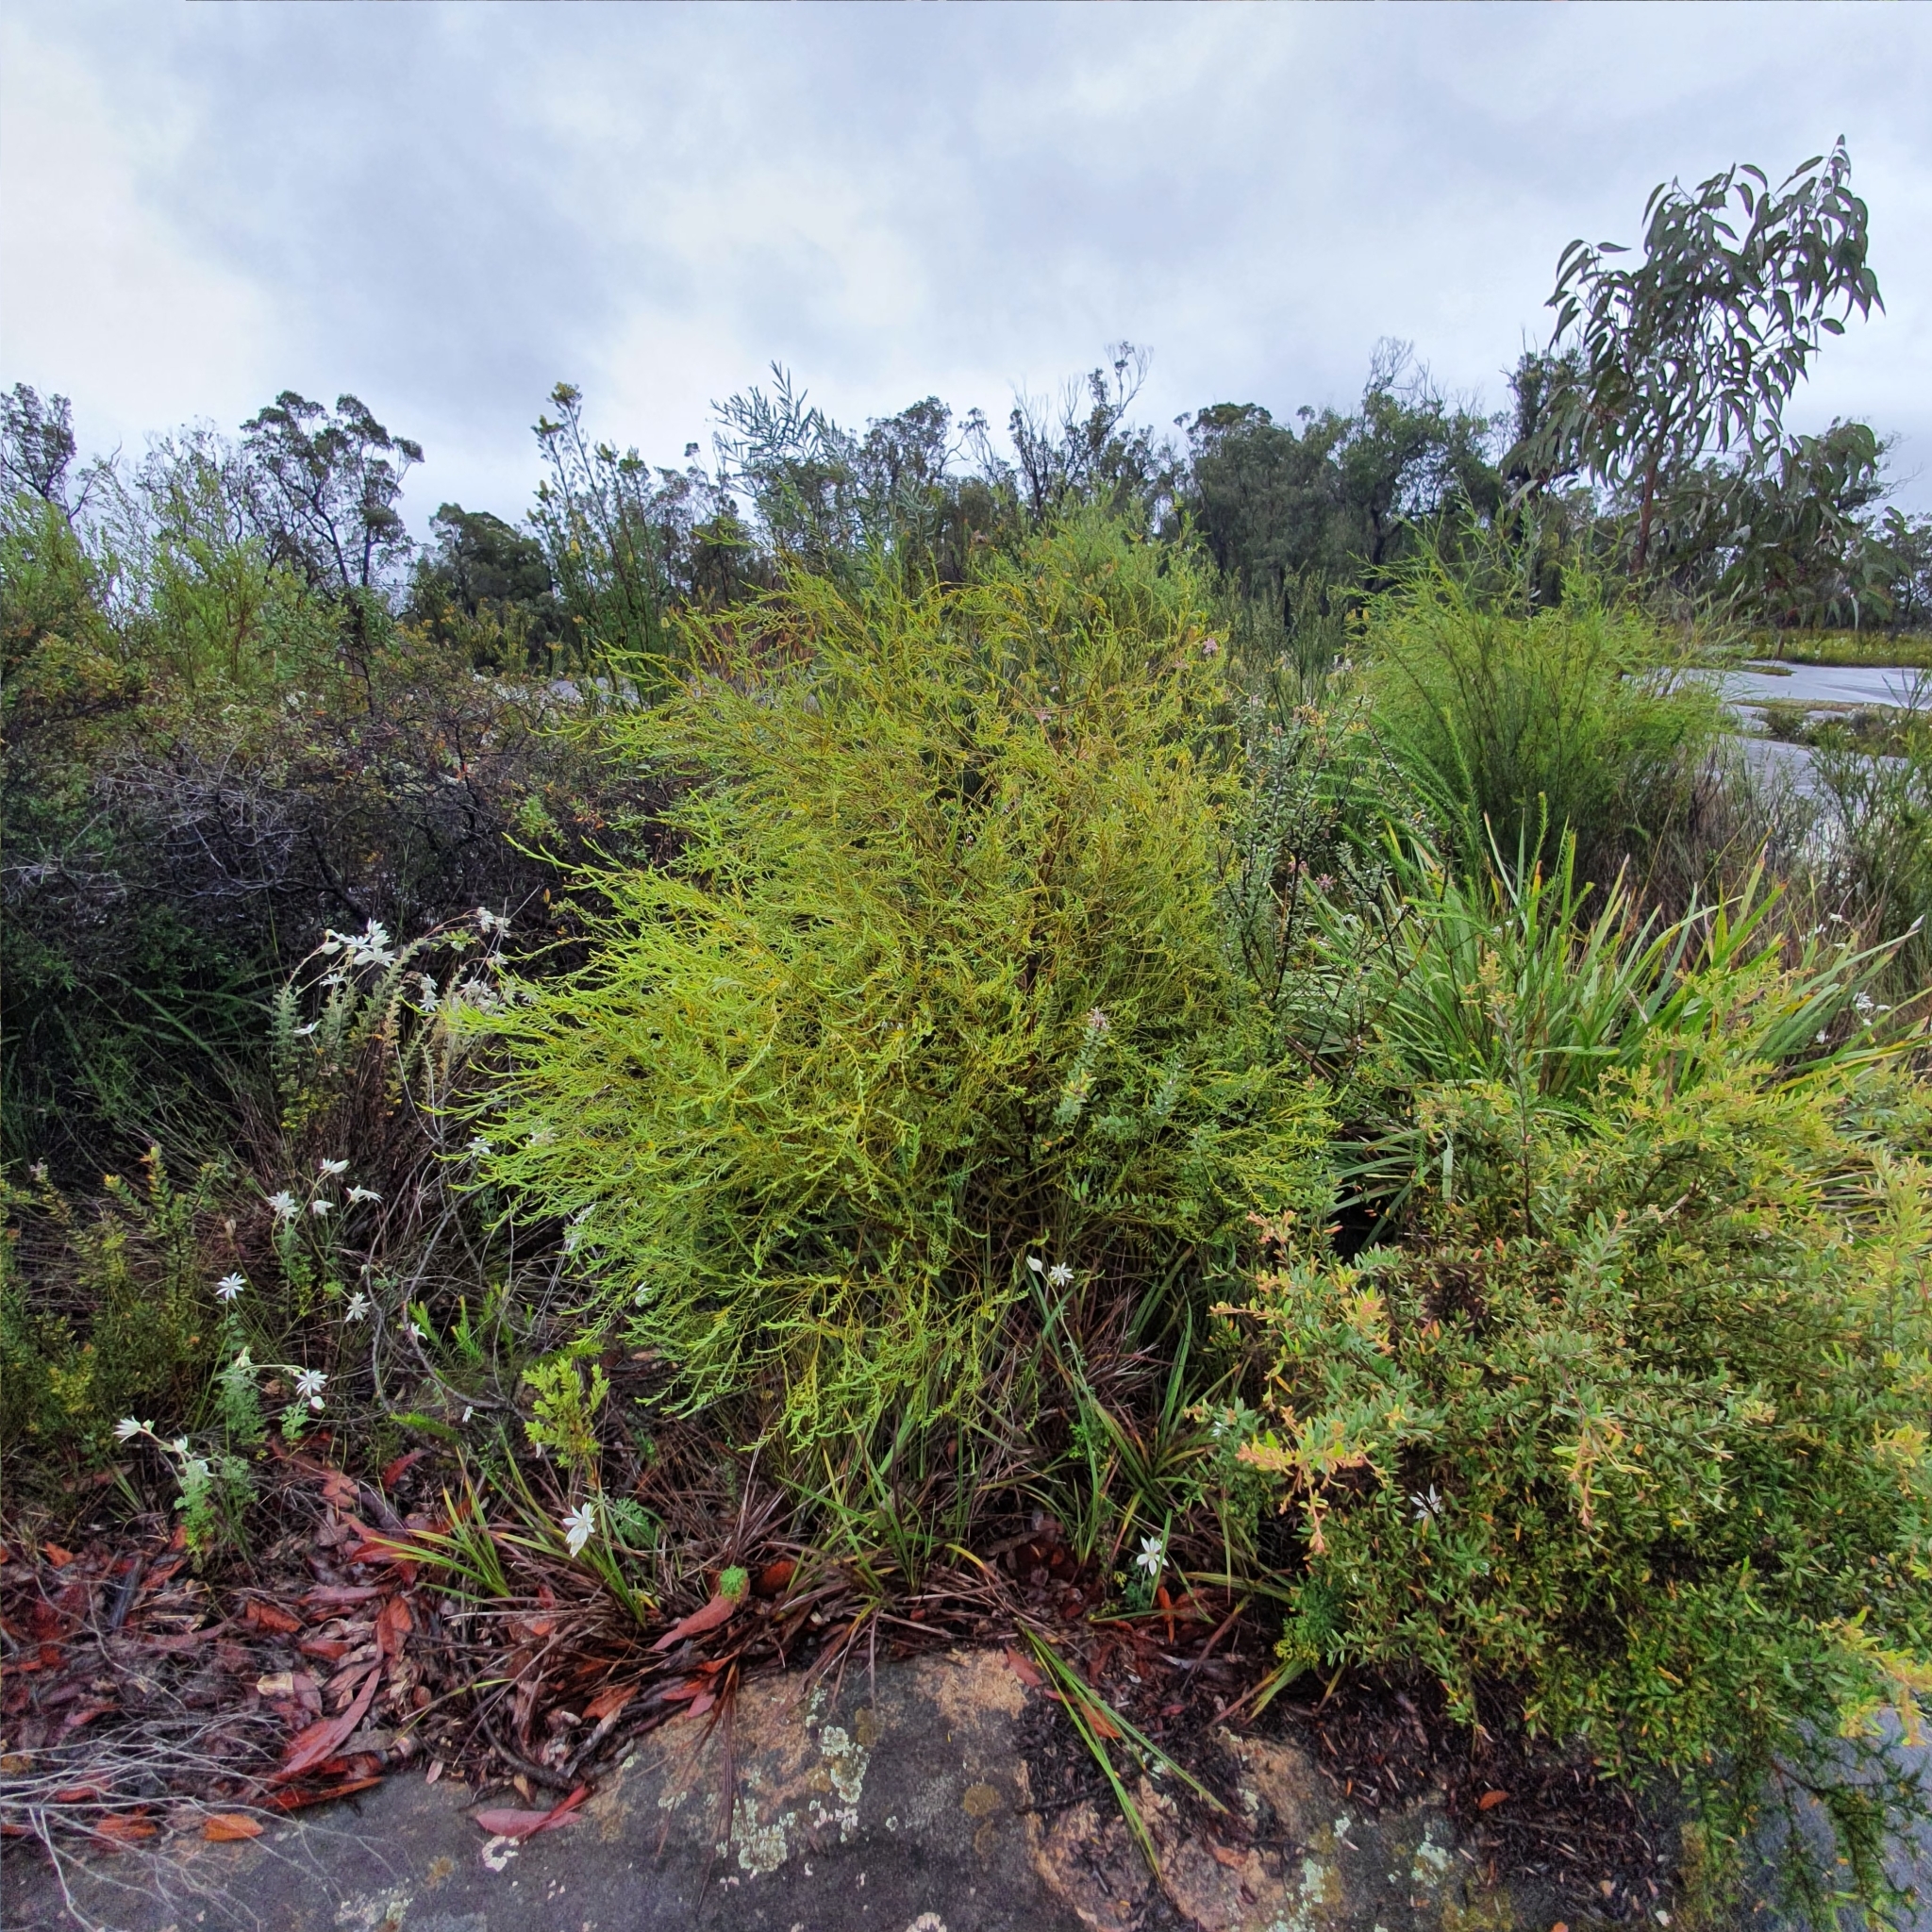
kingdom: Plantae
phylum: Tracheophyta
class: Magnoliopsida
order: Santalales
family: Olacaceae
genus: Olax
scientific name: Olax stricta
